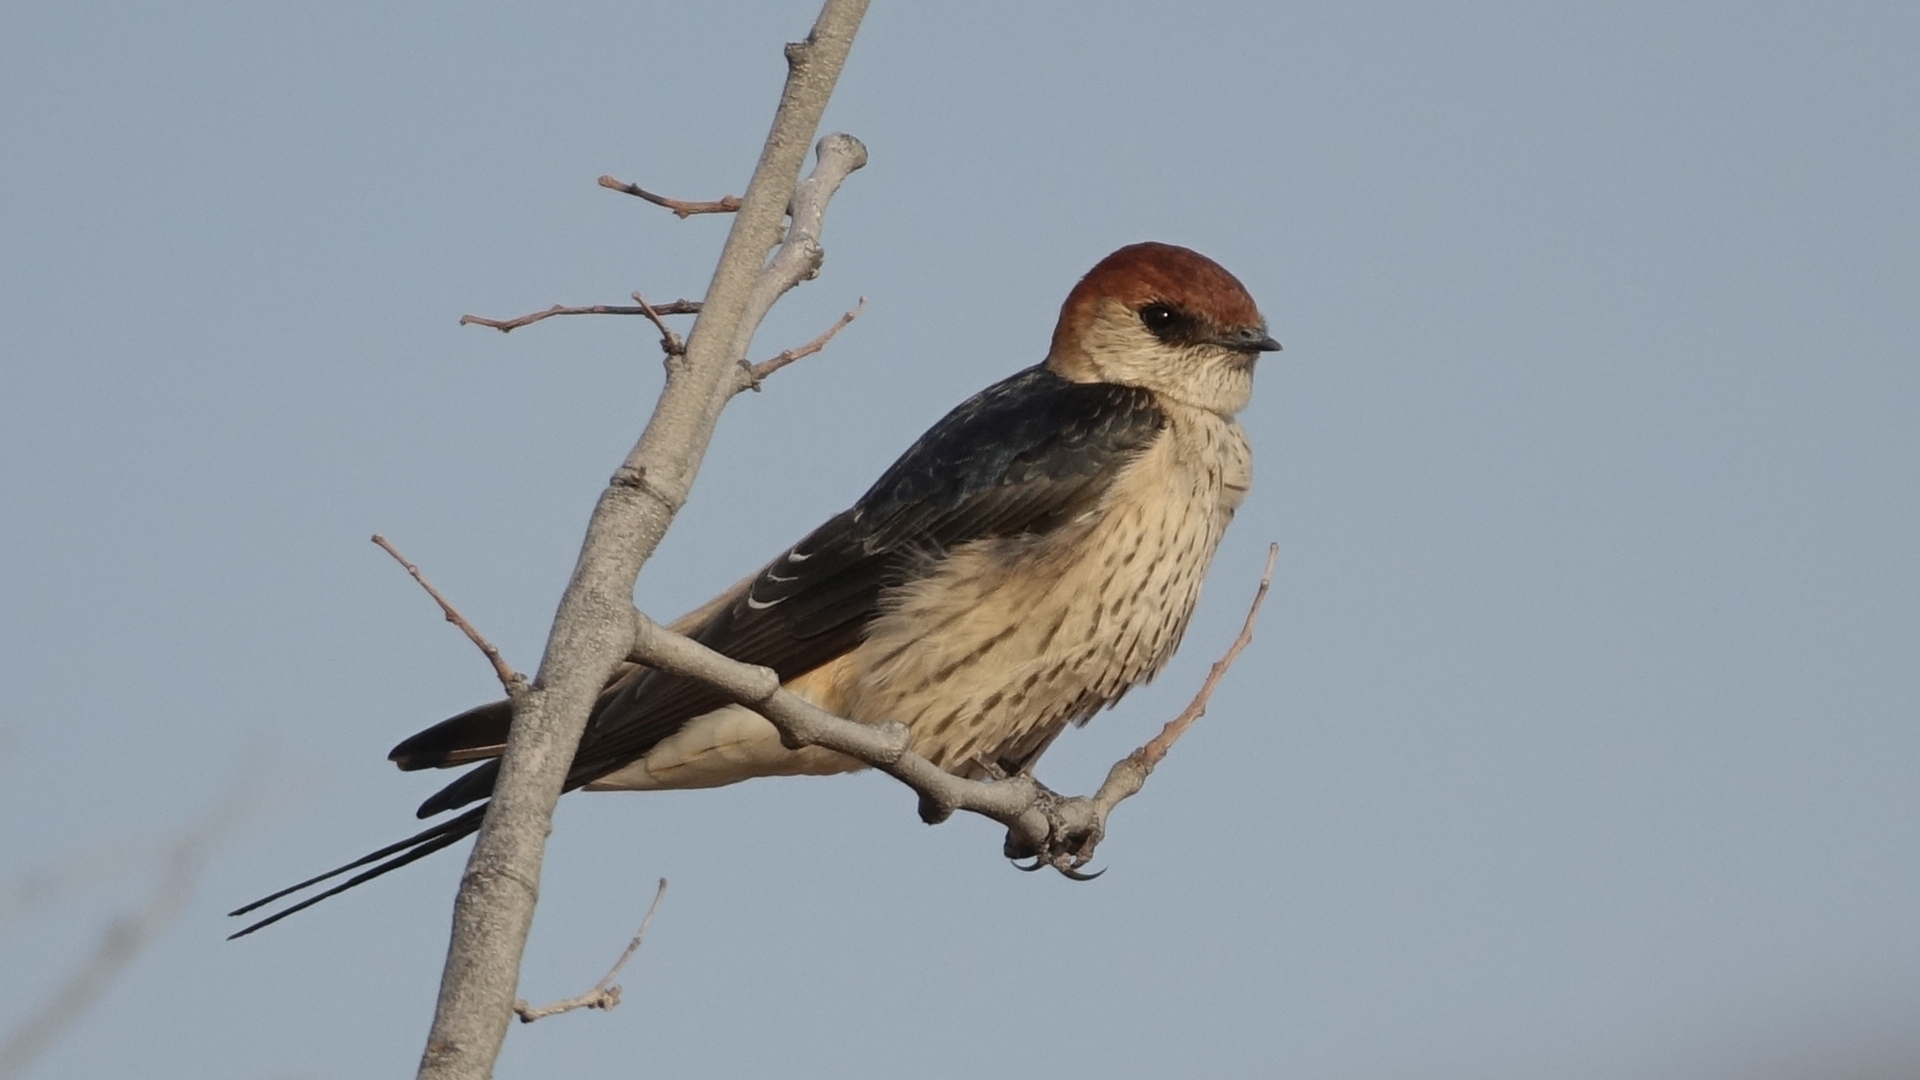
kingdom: Animalia
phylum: Chordata
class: Aves
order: Passeriformes
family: Hirundinidae
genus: Cecropis
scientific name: Cecropis cucullata
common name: Greater striped-swallow
